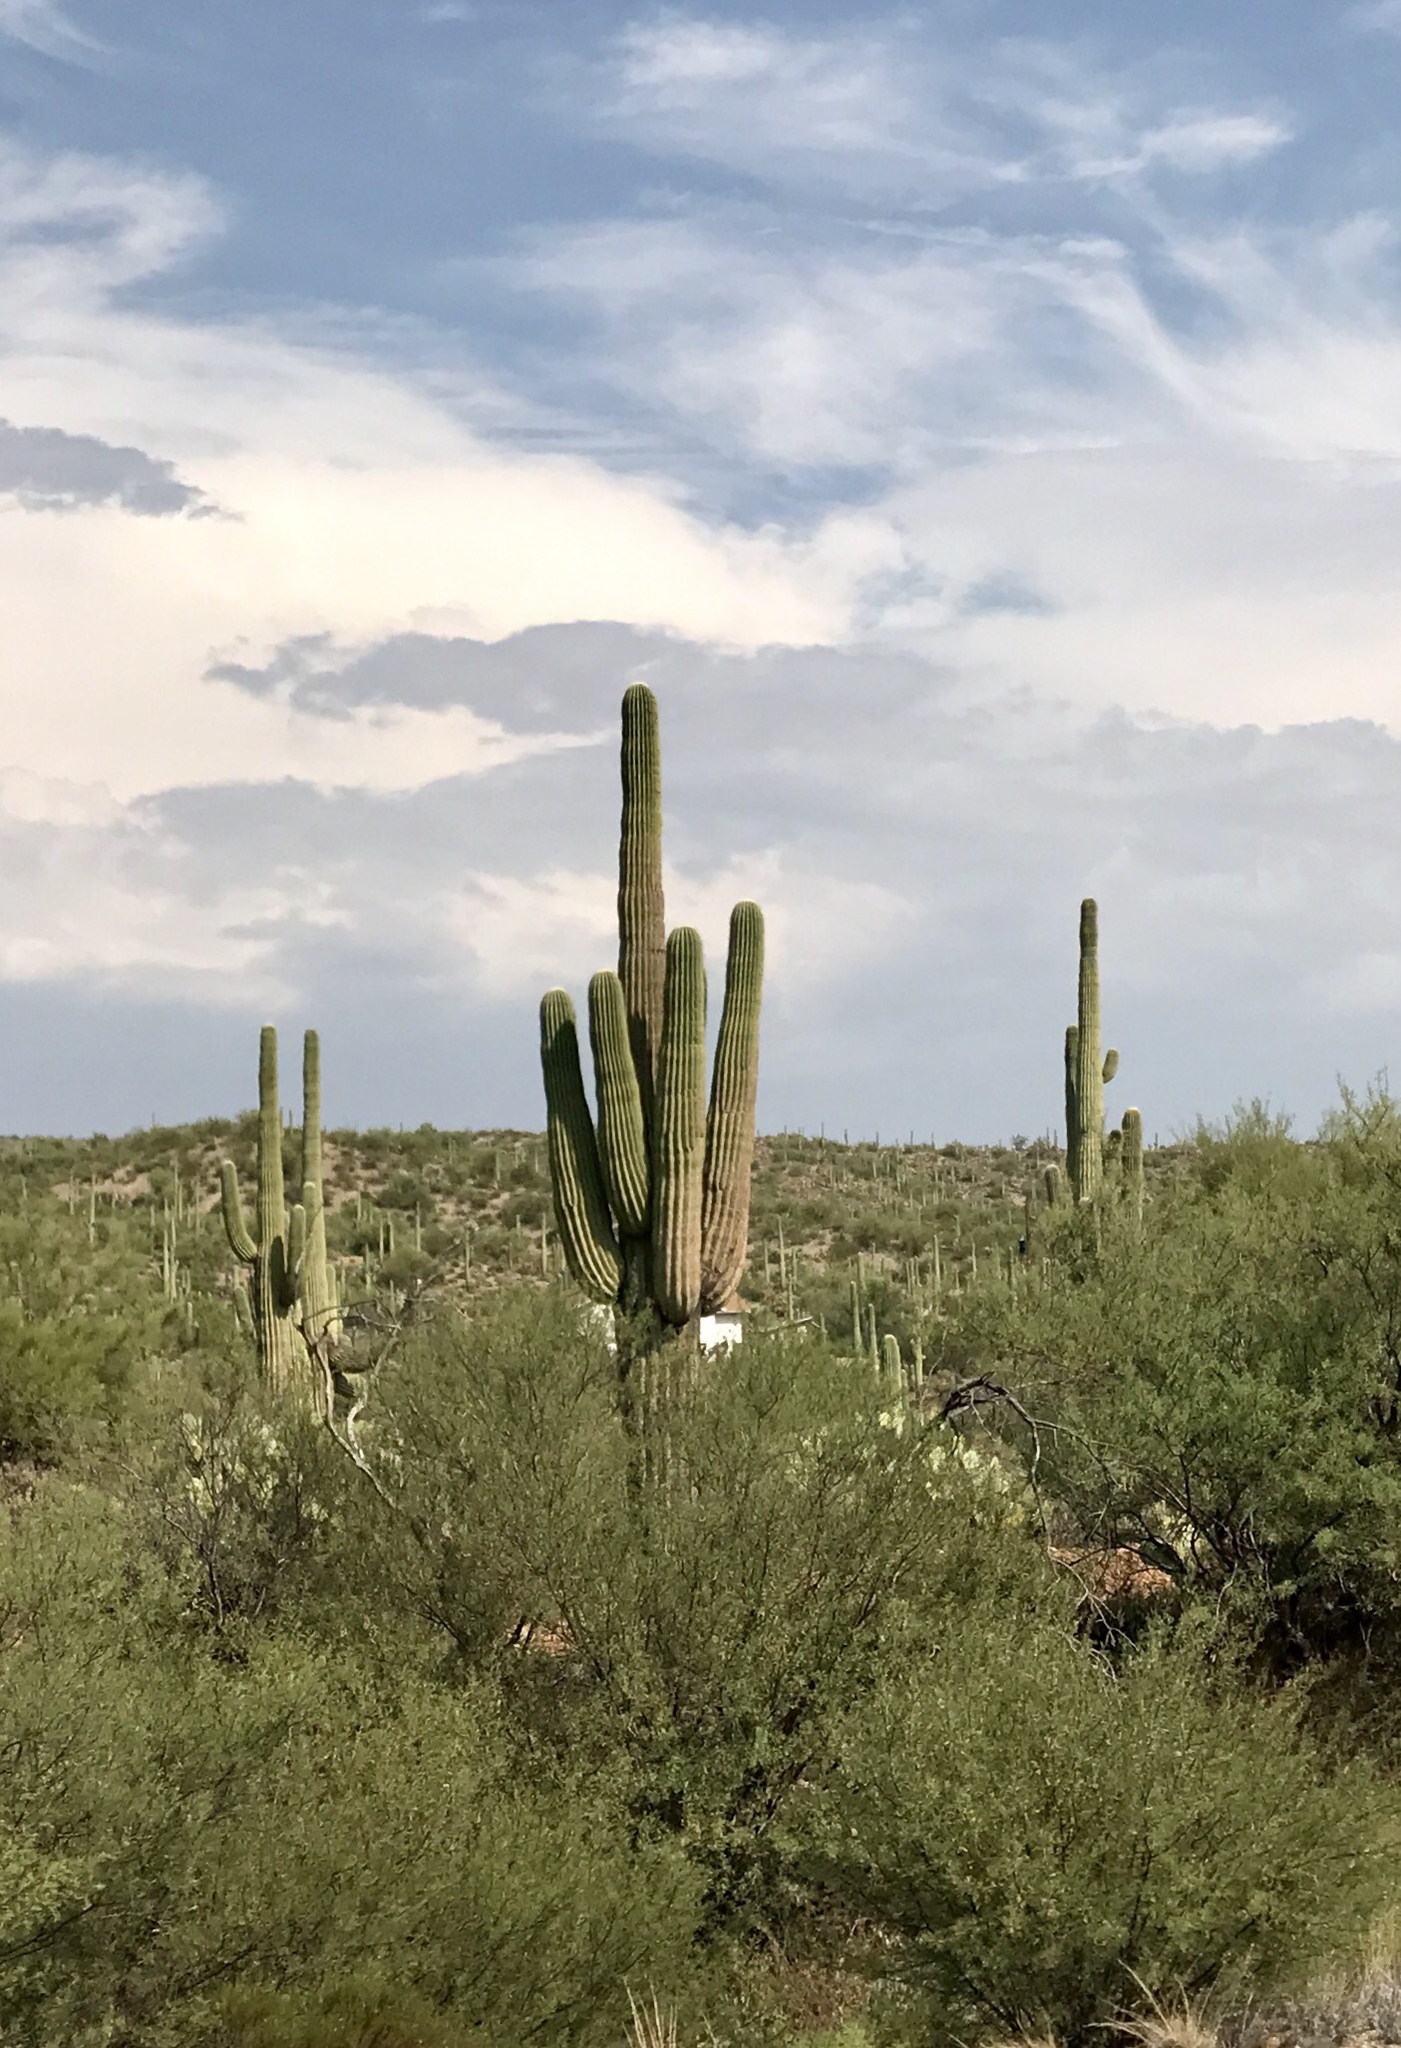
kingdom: Plantae
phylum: Tracheophyta
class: Magnoliopsida
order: Caryophyllales
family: Cactaceae
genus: Carnegiea
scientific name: Carnegiea gigantea
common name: Saguaro
